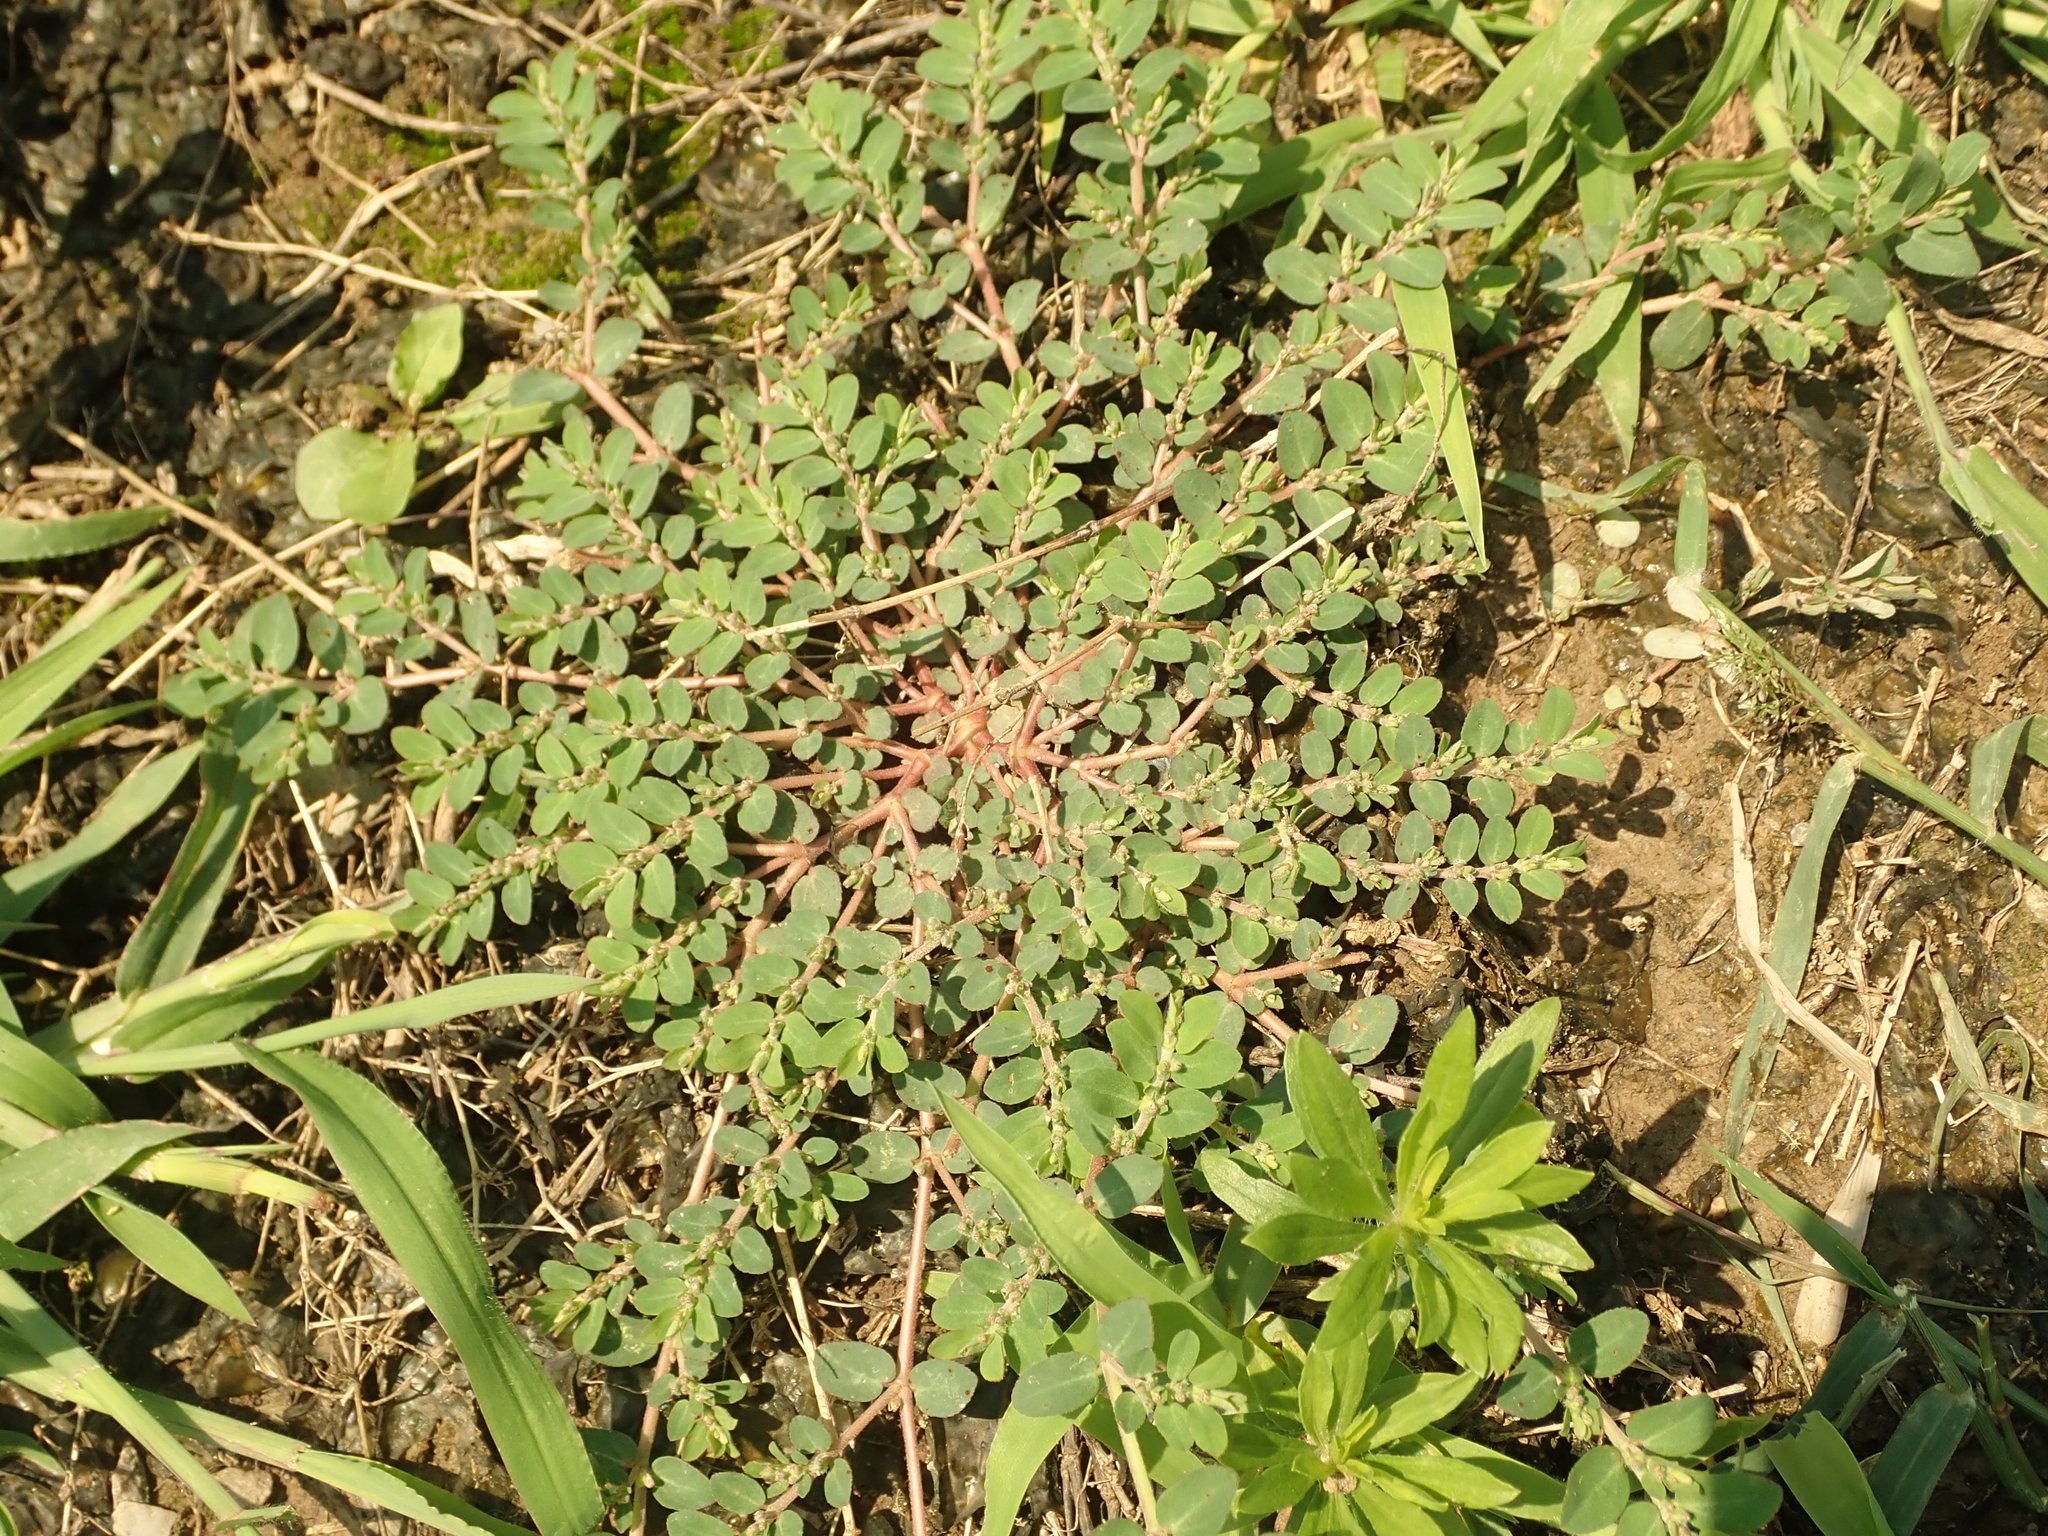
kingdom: Plantae
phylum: Tracheophyta
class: Magnoliopsida
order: Malpighiales
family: Euphorbiaceae
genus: Euphorbia
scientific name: Euphorbia prostrata
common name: Prostrate sandmat
